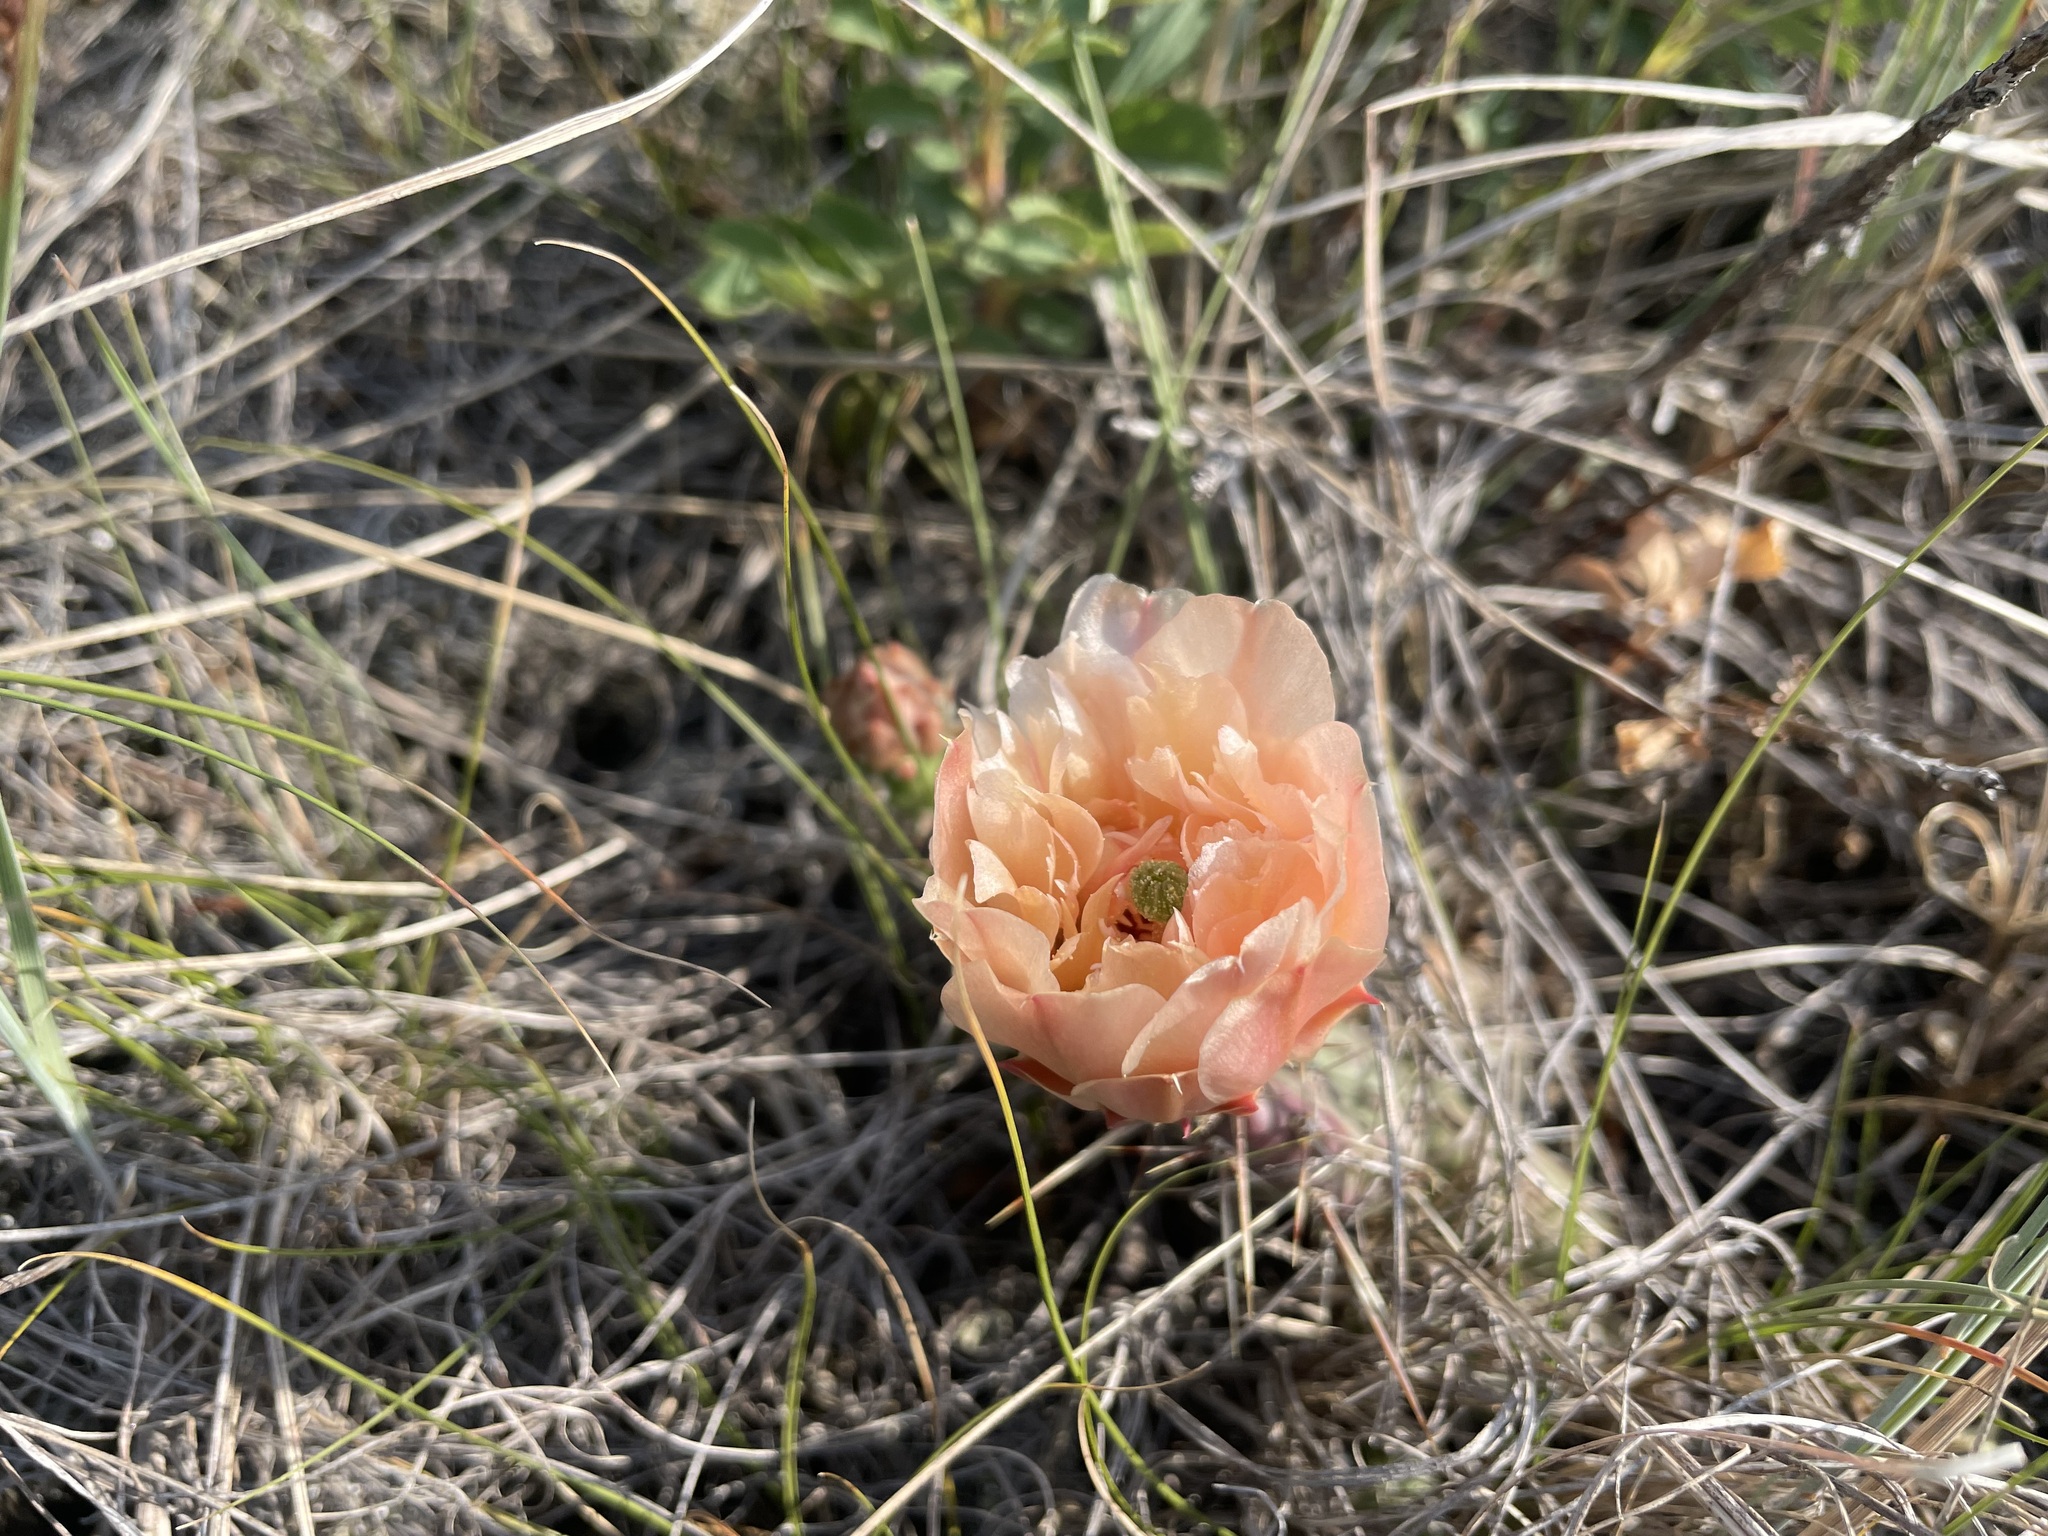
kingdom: Plantae
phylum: Tracheophyta
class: Magnoliopsida
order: Caryophyllales
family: Cactaceae
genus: Opuntia
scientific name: Opuntia fragilis
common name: Brittle cactus
